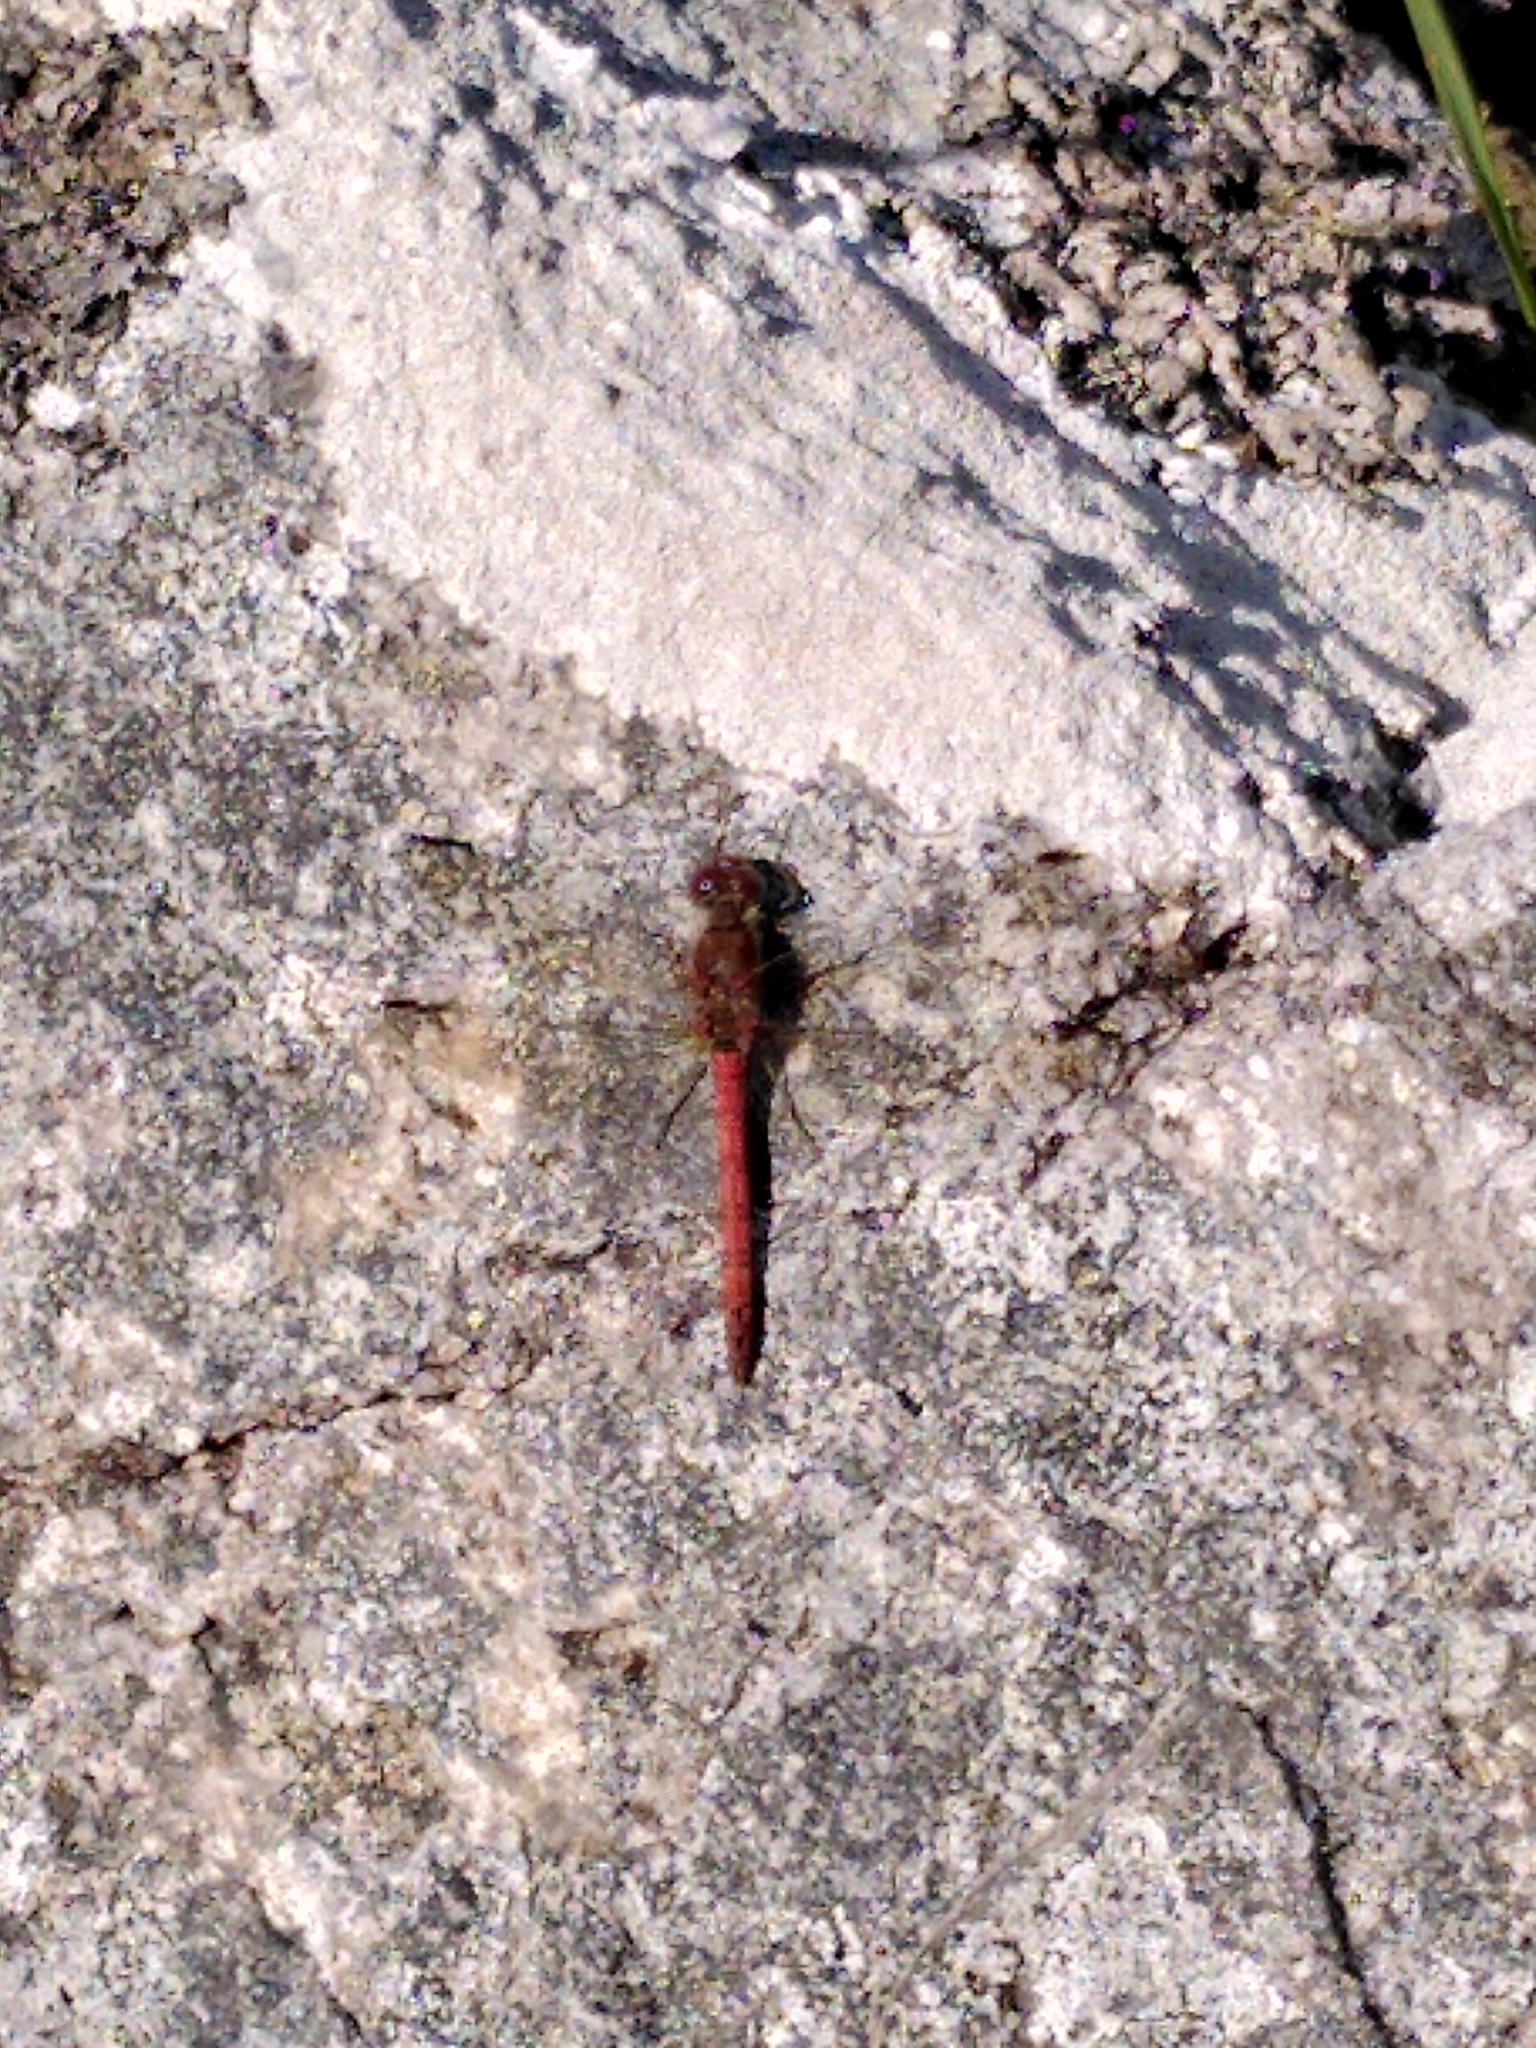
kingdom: Animalia
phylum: Arthropoda
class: Insecta
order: Odonata
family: Libellulidae
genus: Sympetrum
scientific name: Sympetrum striolatum
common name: Common darter
